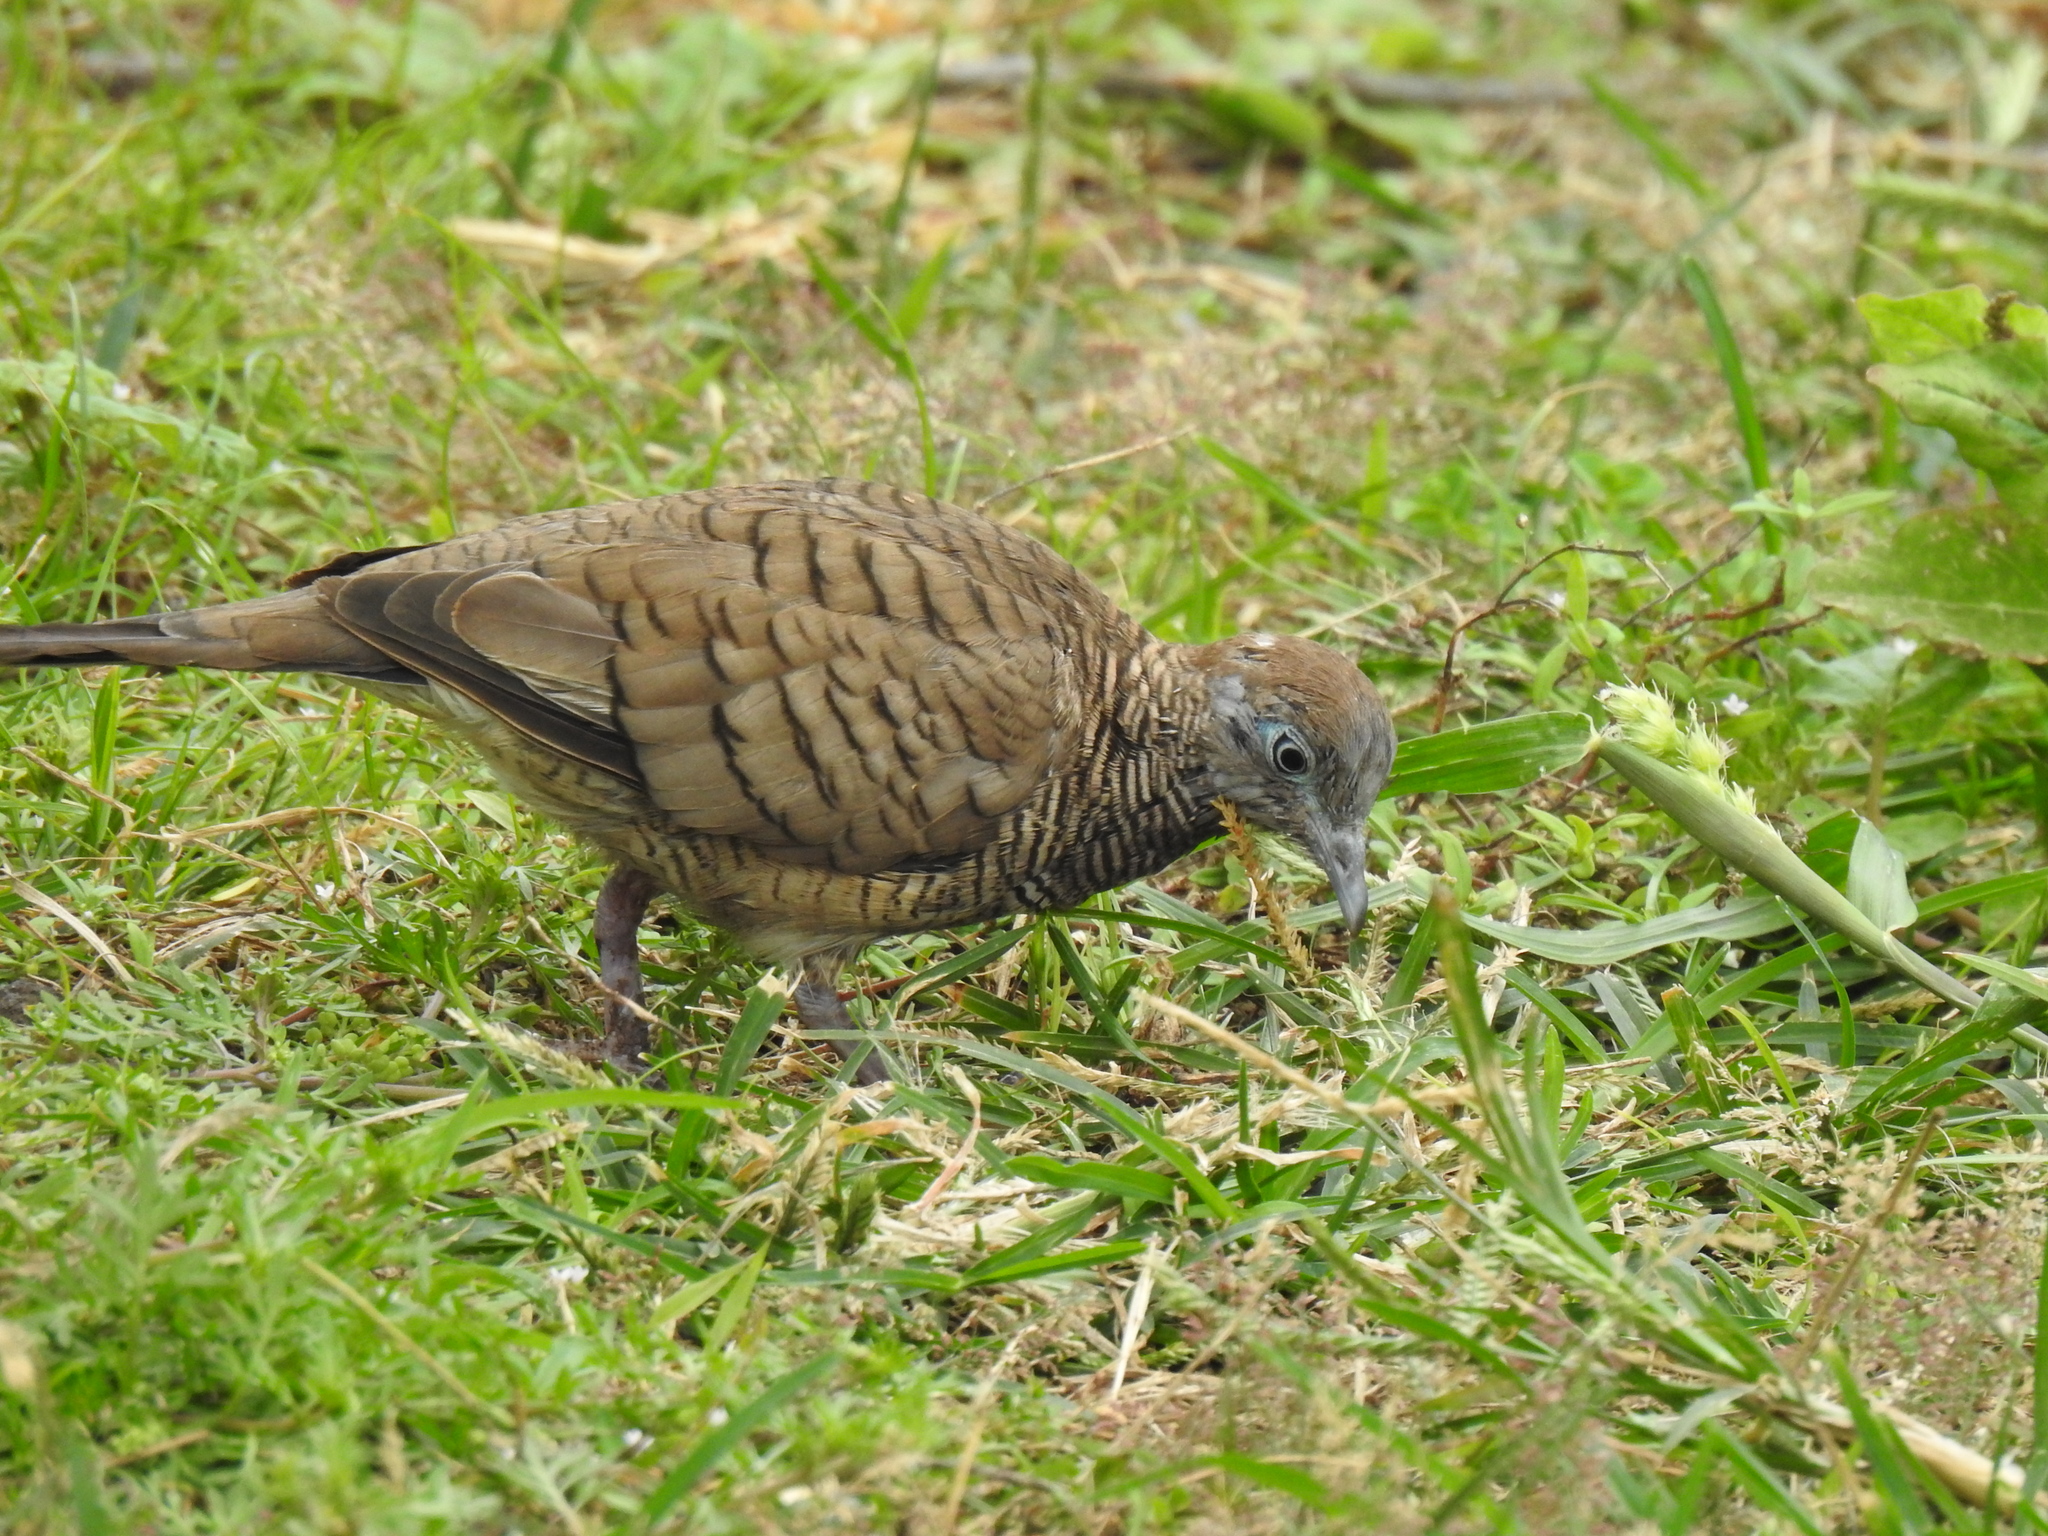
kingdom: Animalia
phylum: Chordata
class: Aves
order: Columbiformes
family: Columbidae
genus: Geopelia
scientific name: Geopelia striata
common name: Zebra dove
